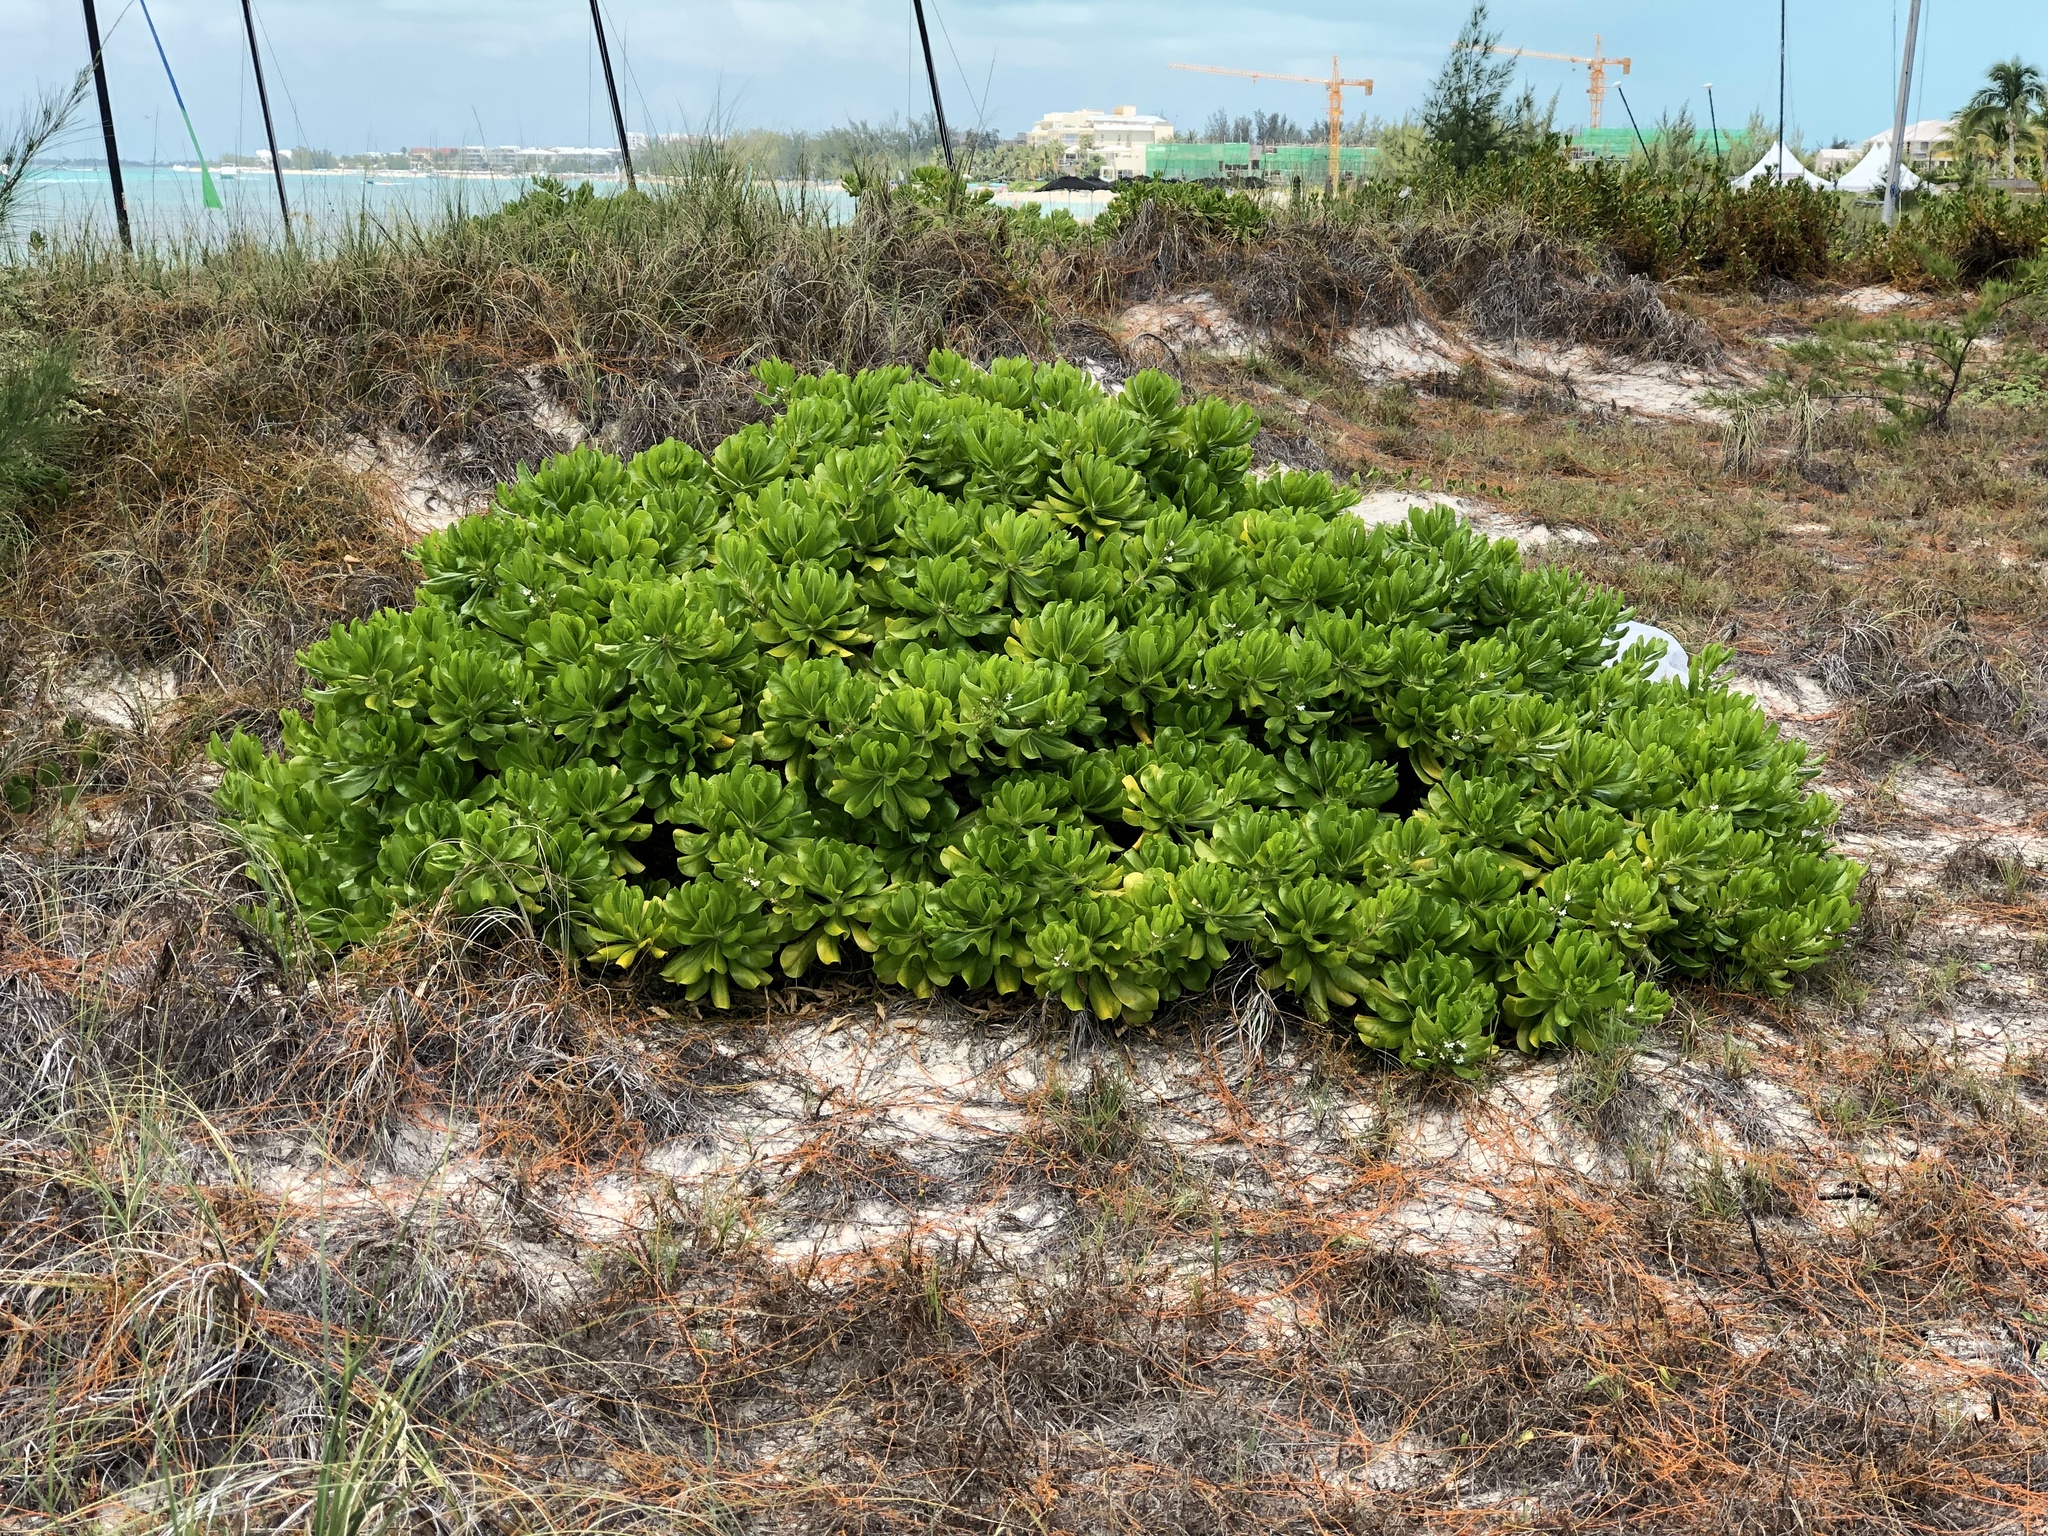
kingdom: Plantae
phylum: Tracheophyta
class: Magnoliopsida
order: Asterales
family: Goodeniaceae
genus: Scaevola
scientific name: Scaevola taccada
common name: Sea lettucetree
